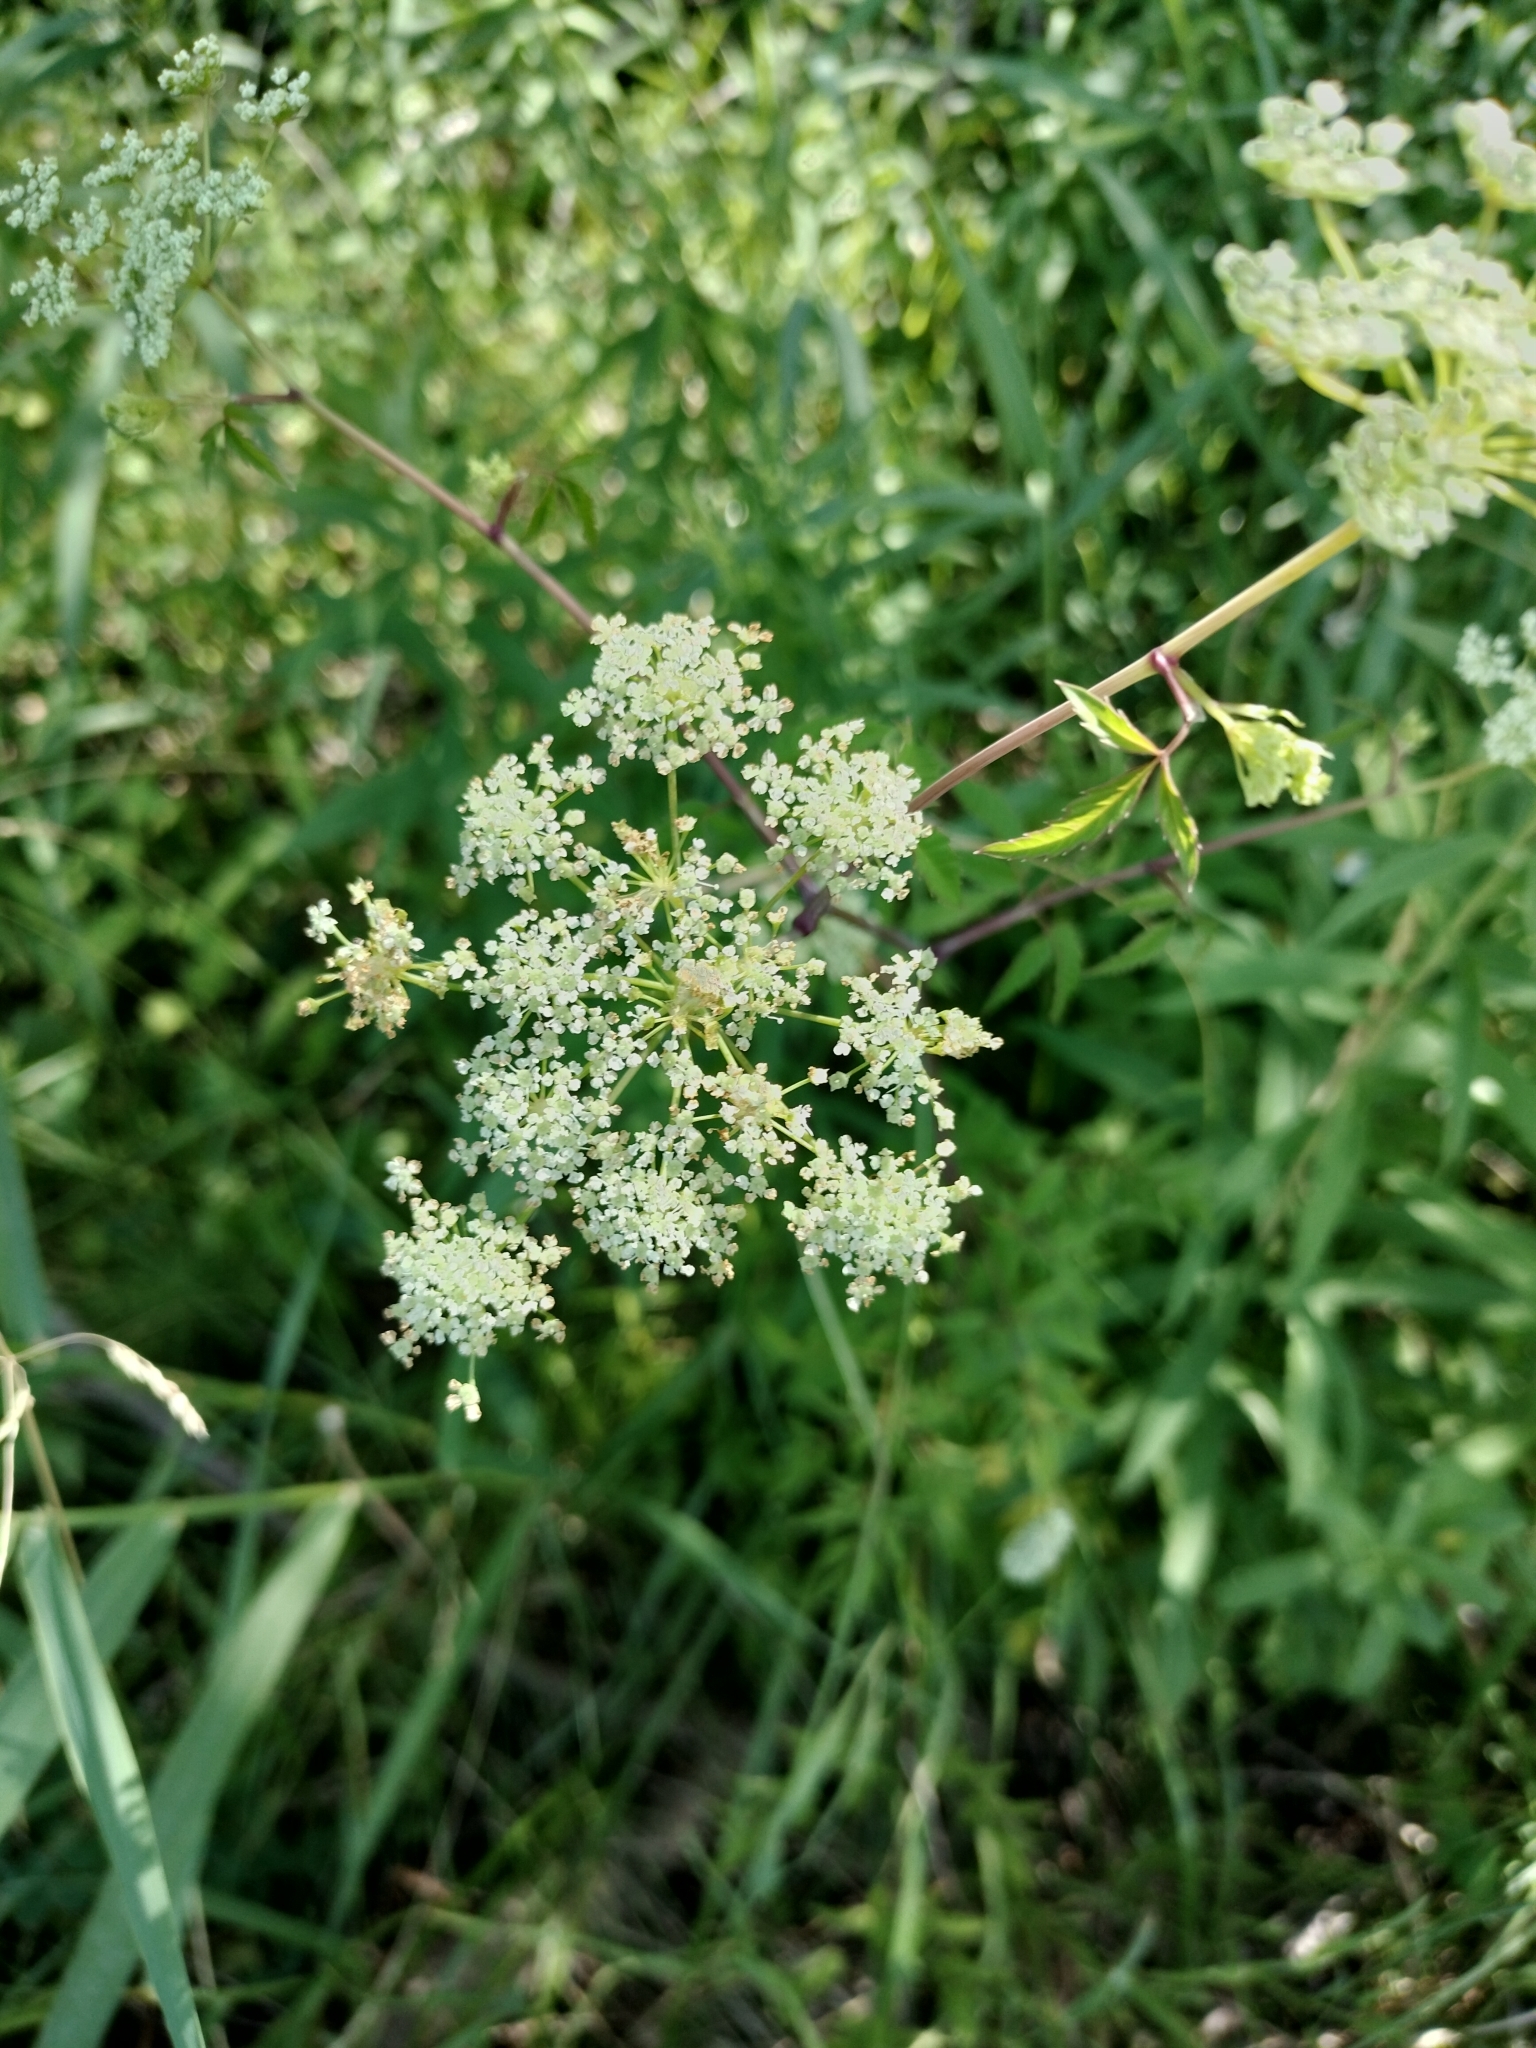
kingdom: Plantae
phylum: Tracheophyta
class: Magnoliopsida
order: Apiales
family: Apiaceae
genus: Cicuta
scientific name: Cicuta maculata
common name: Spotted cowbane
